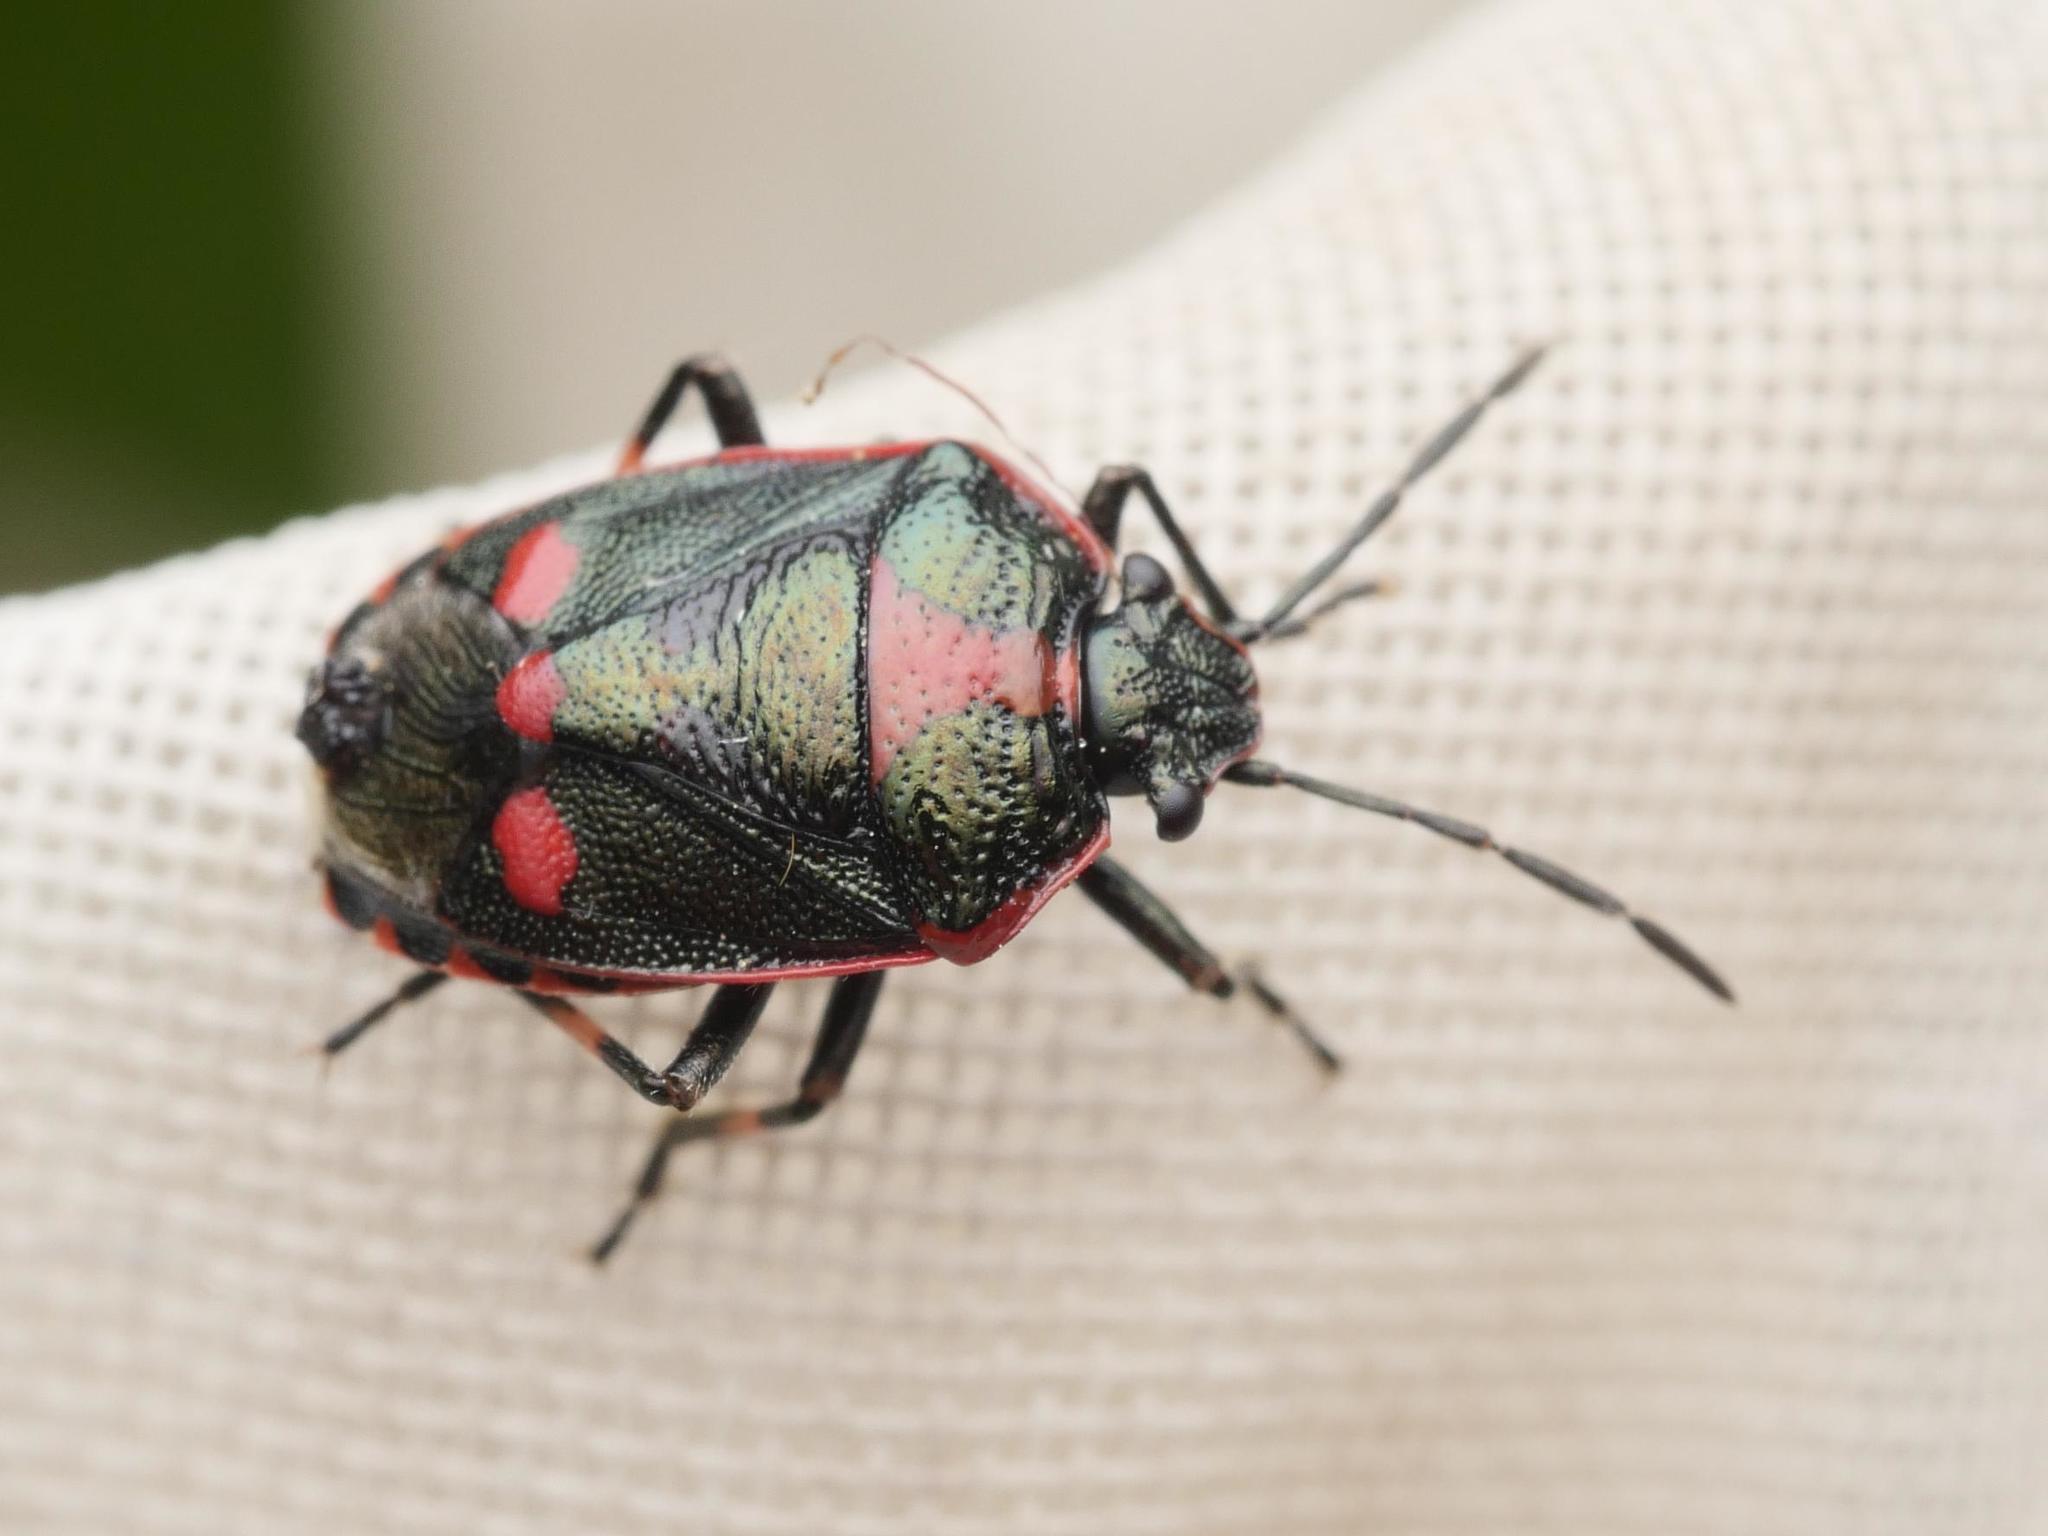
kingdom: Animalia
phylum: Arthropoda
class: Insecta
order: Hemiptera
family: Pentatomidae
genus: Eurydema
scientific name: Eurydema oleracea
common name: Cabbage bug
